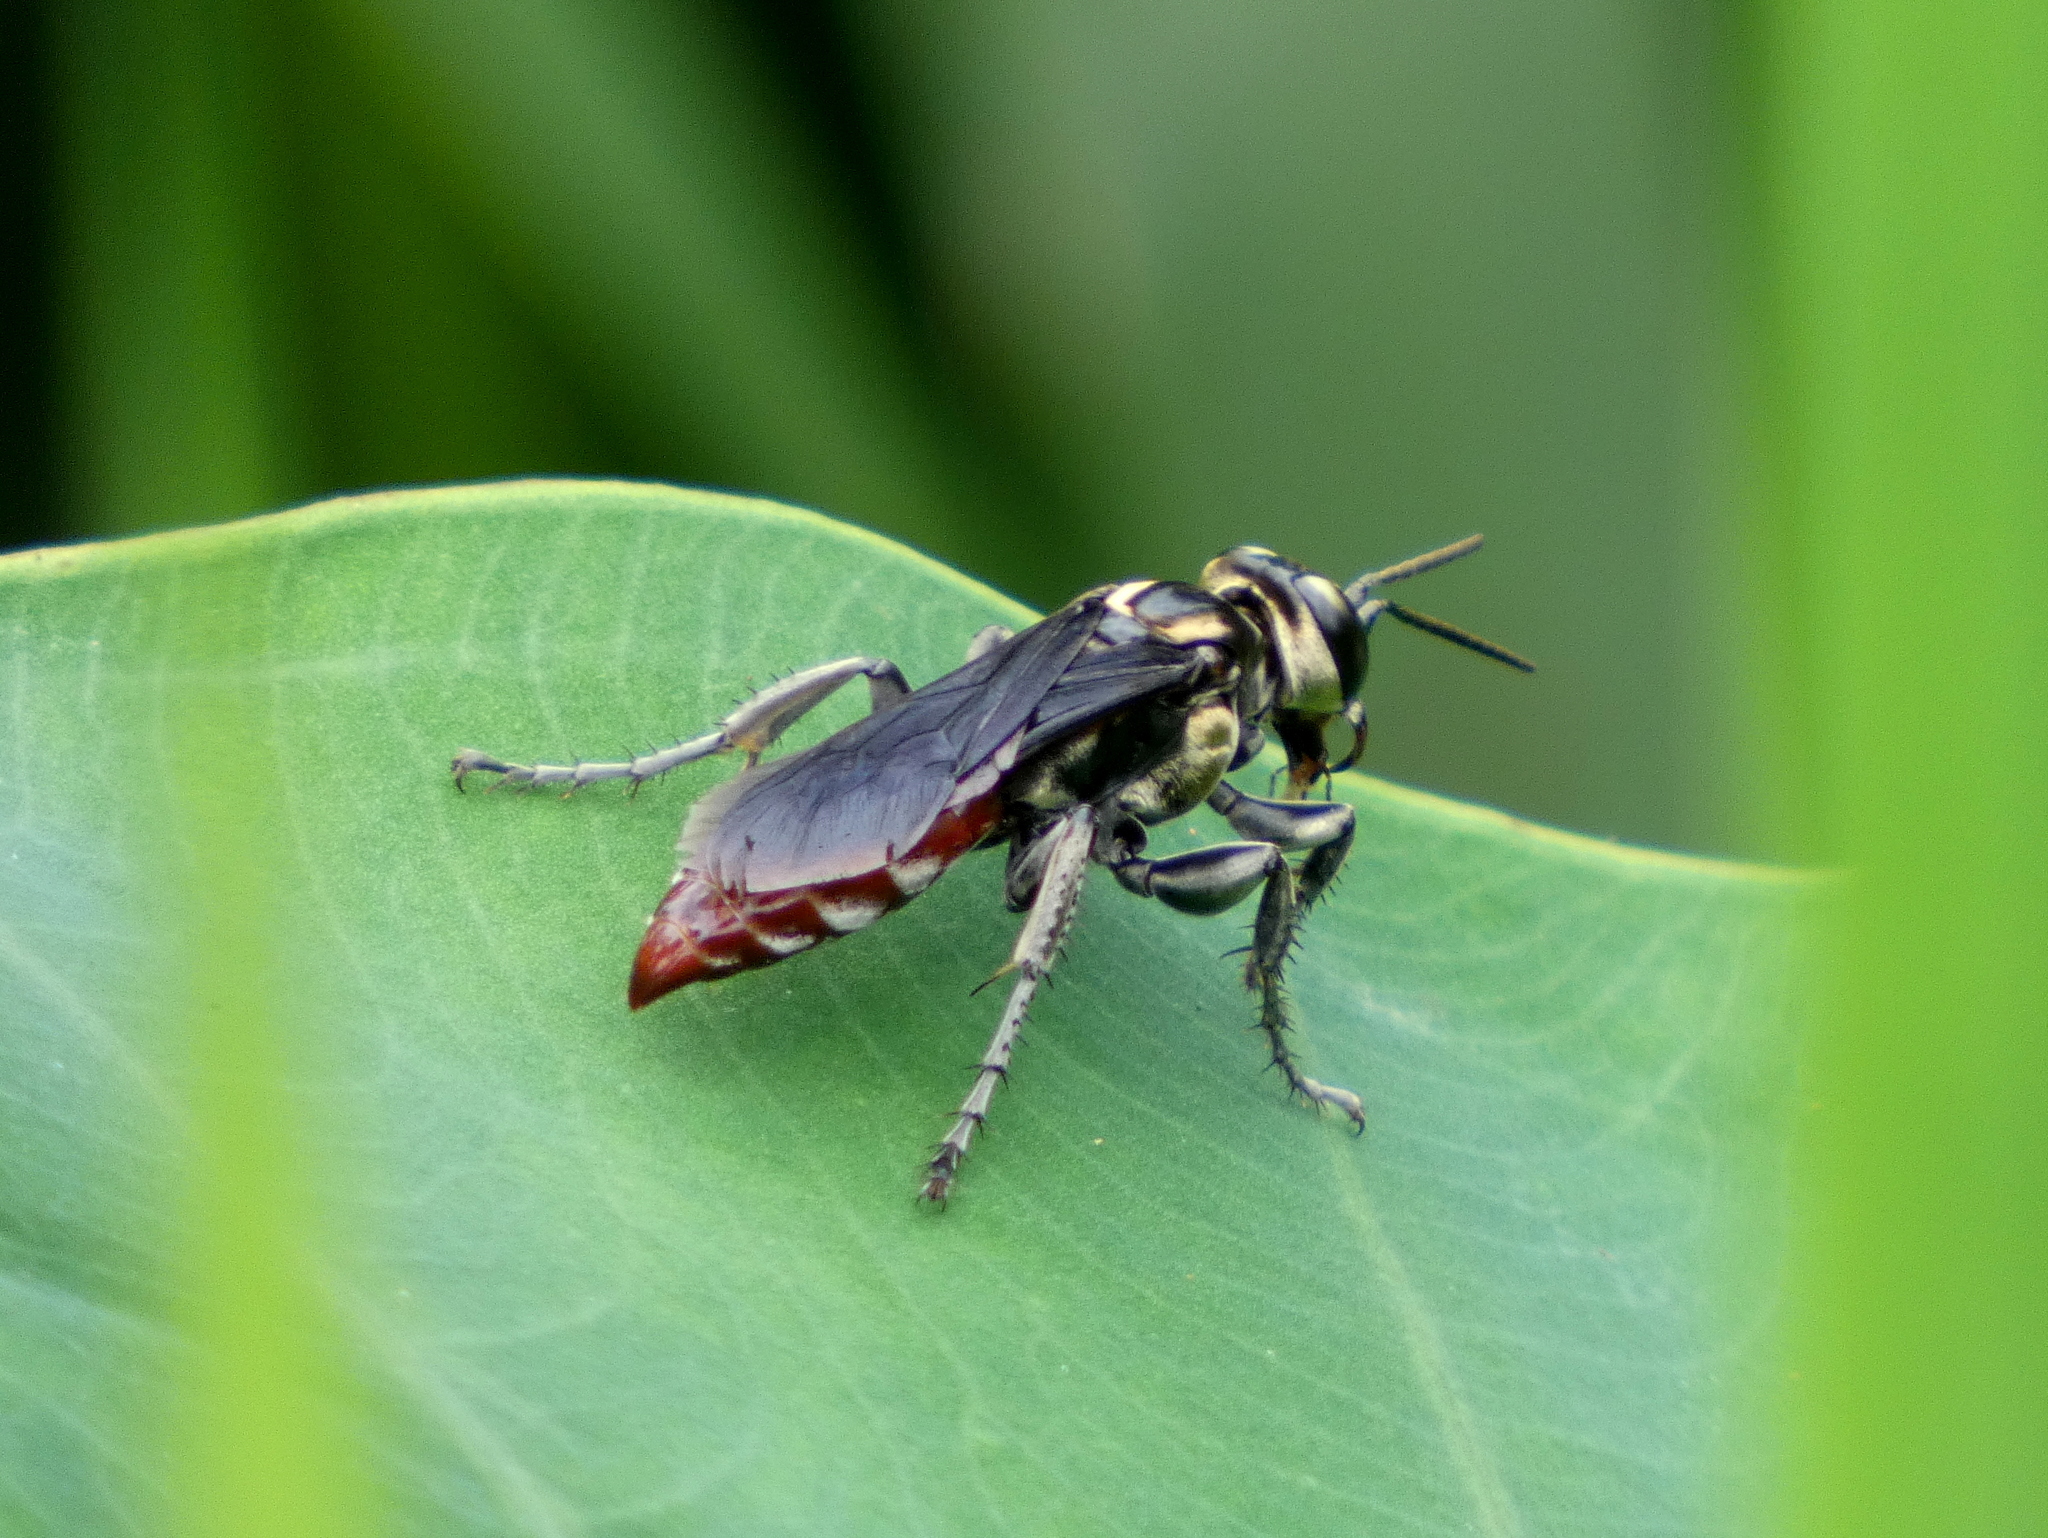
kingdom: Animalia
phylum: Arthropoda
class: Insecta
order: Hymenoptera
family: Crabronidae
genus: Larra
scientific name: Larra bicolor
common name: Wasp
